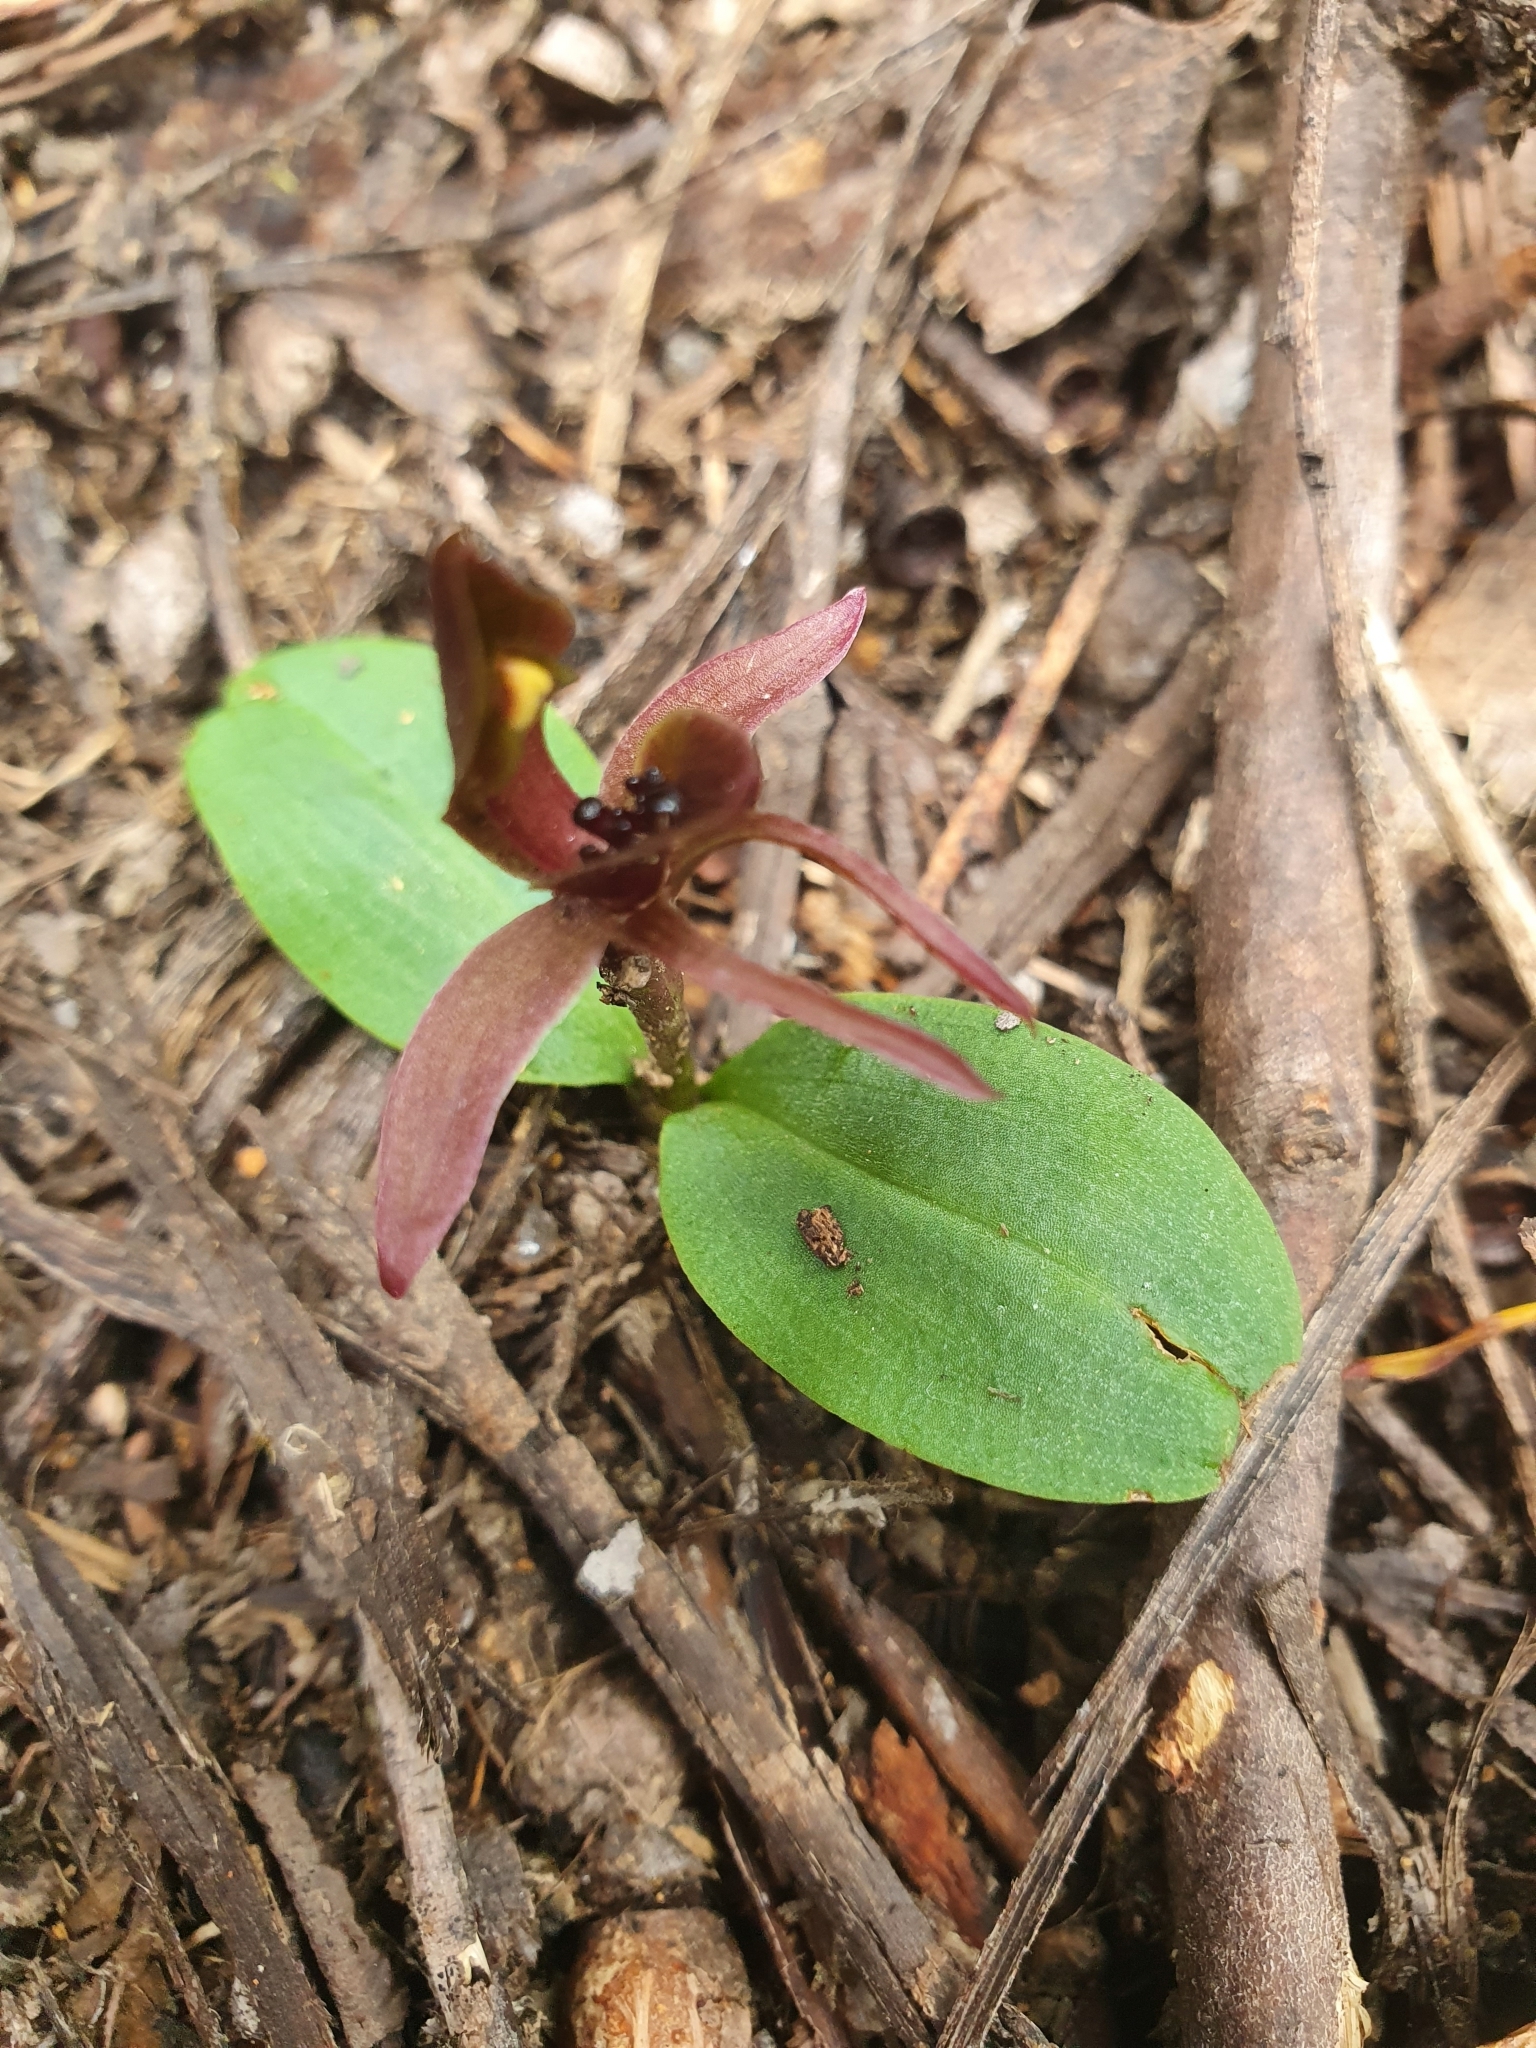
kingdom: Plantae
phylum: Tracheophyta
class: Liliopsida
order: Asparagales
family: Orchidaceae
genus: Chiloglottis
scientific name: Chiloglottis grammata
